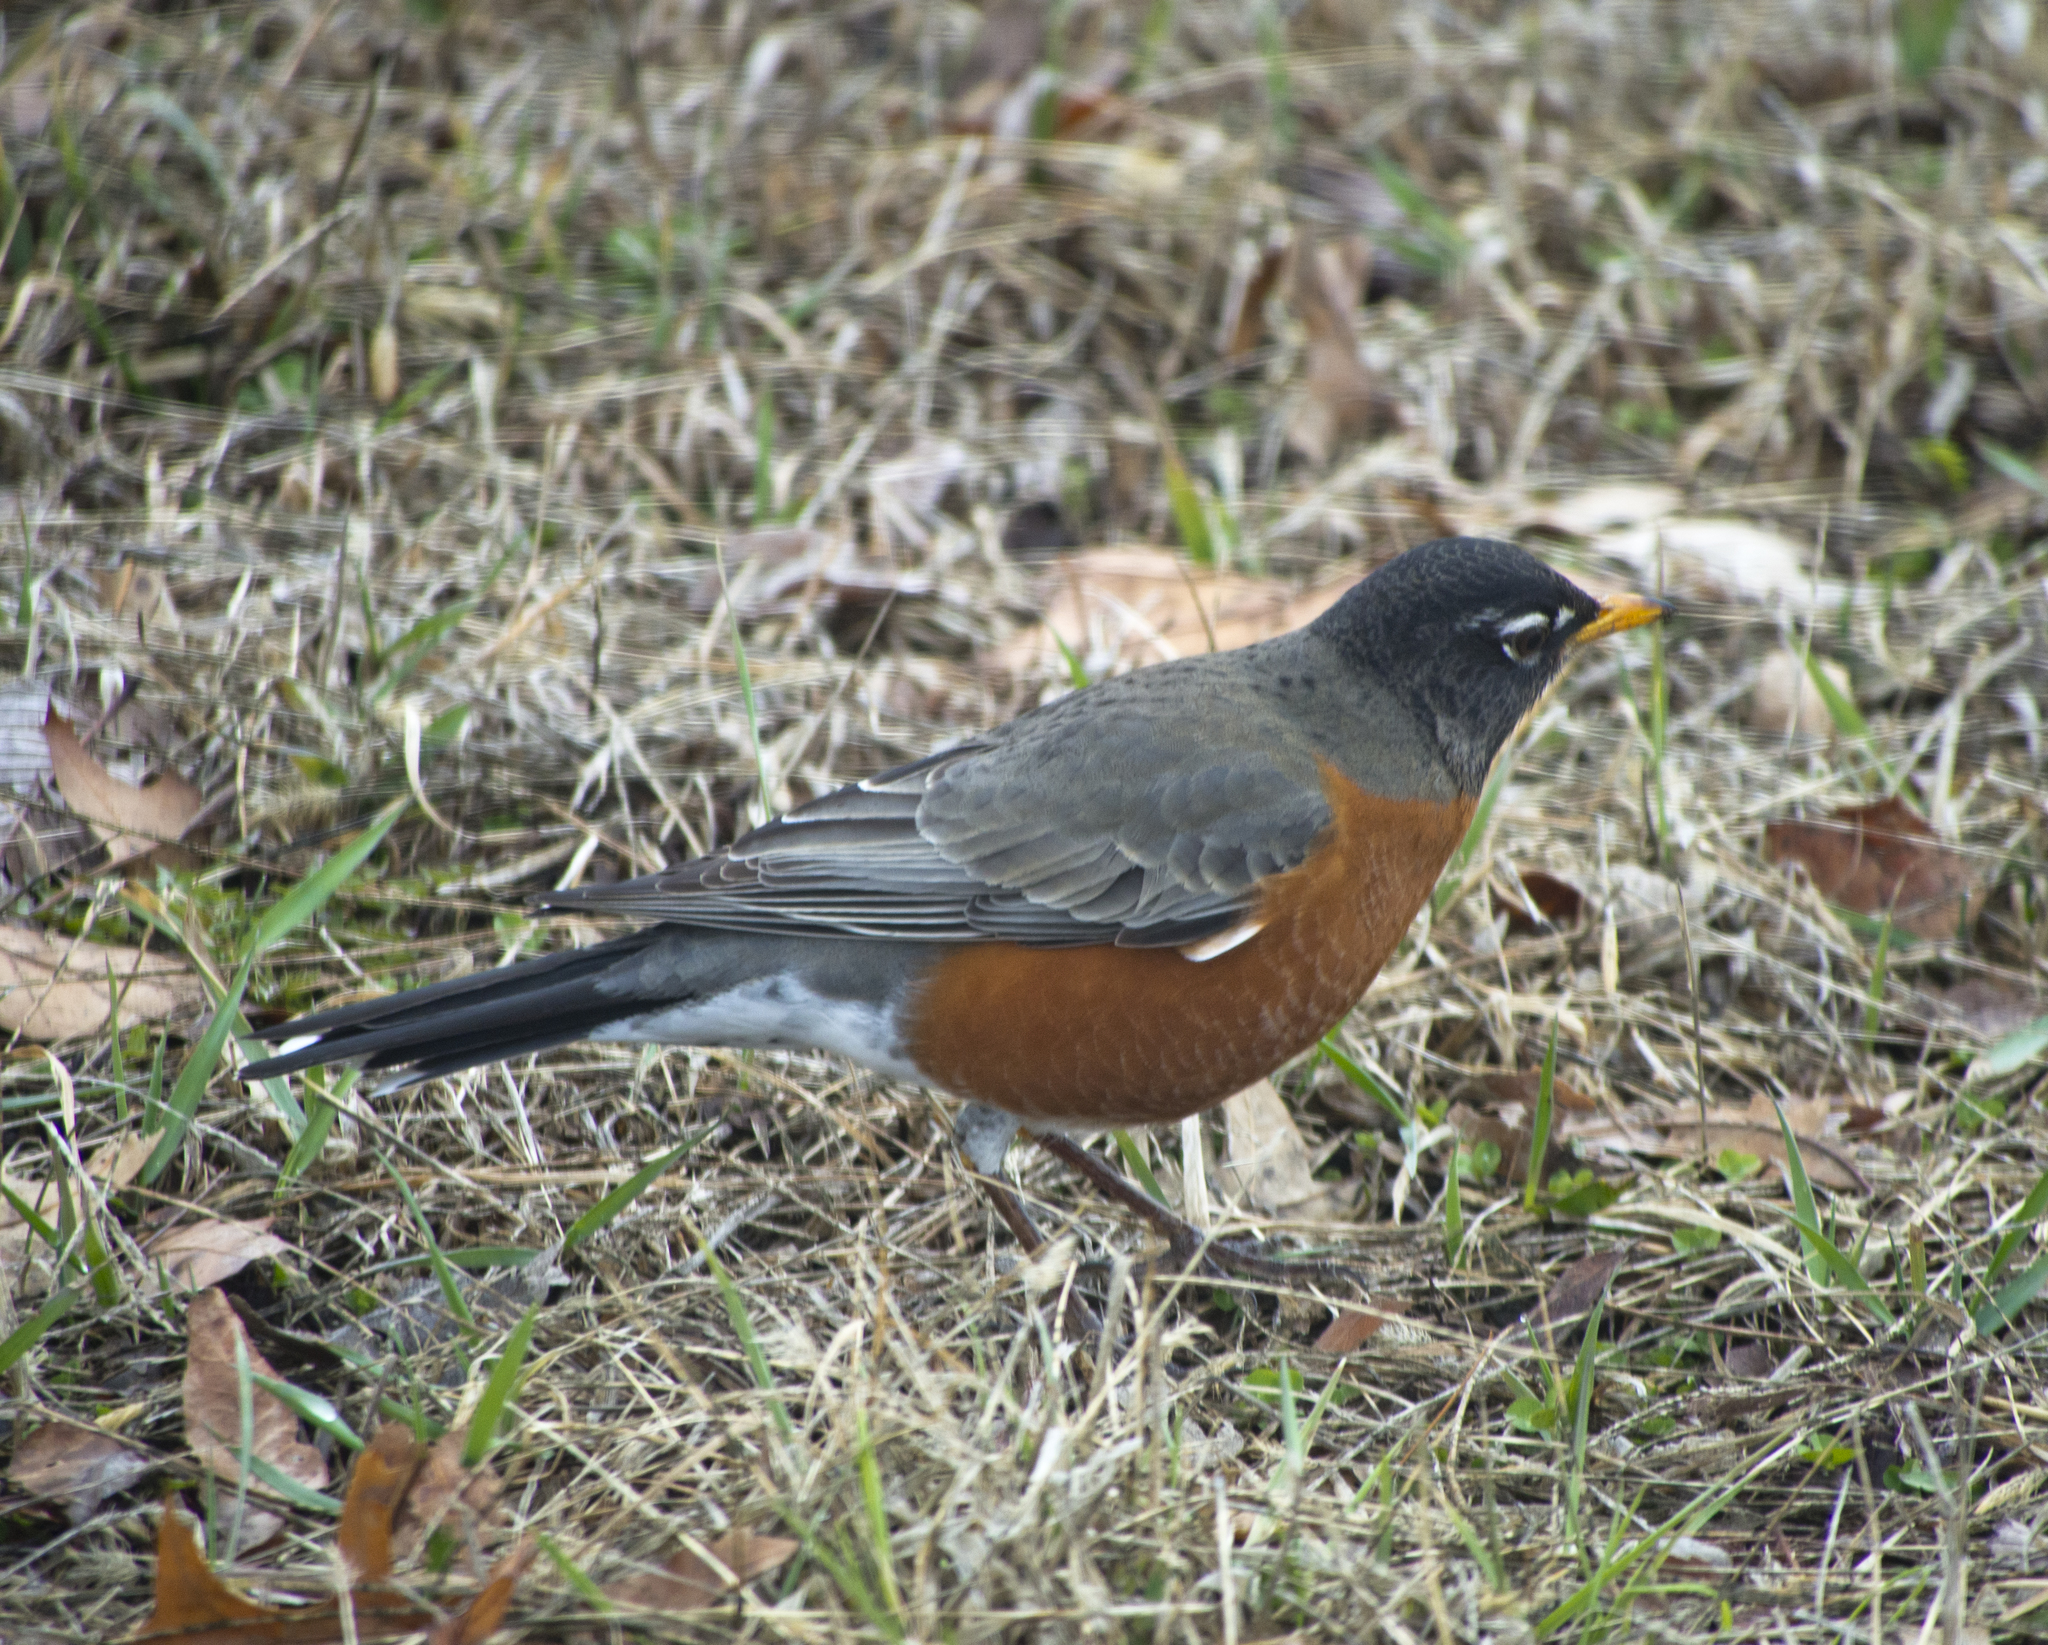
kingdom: Animalia
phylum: Chordata
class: Aves
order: Passeriformes
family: Turdidae
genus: Turdus
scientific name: Turdus migratorius
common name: American robin
